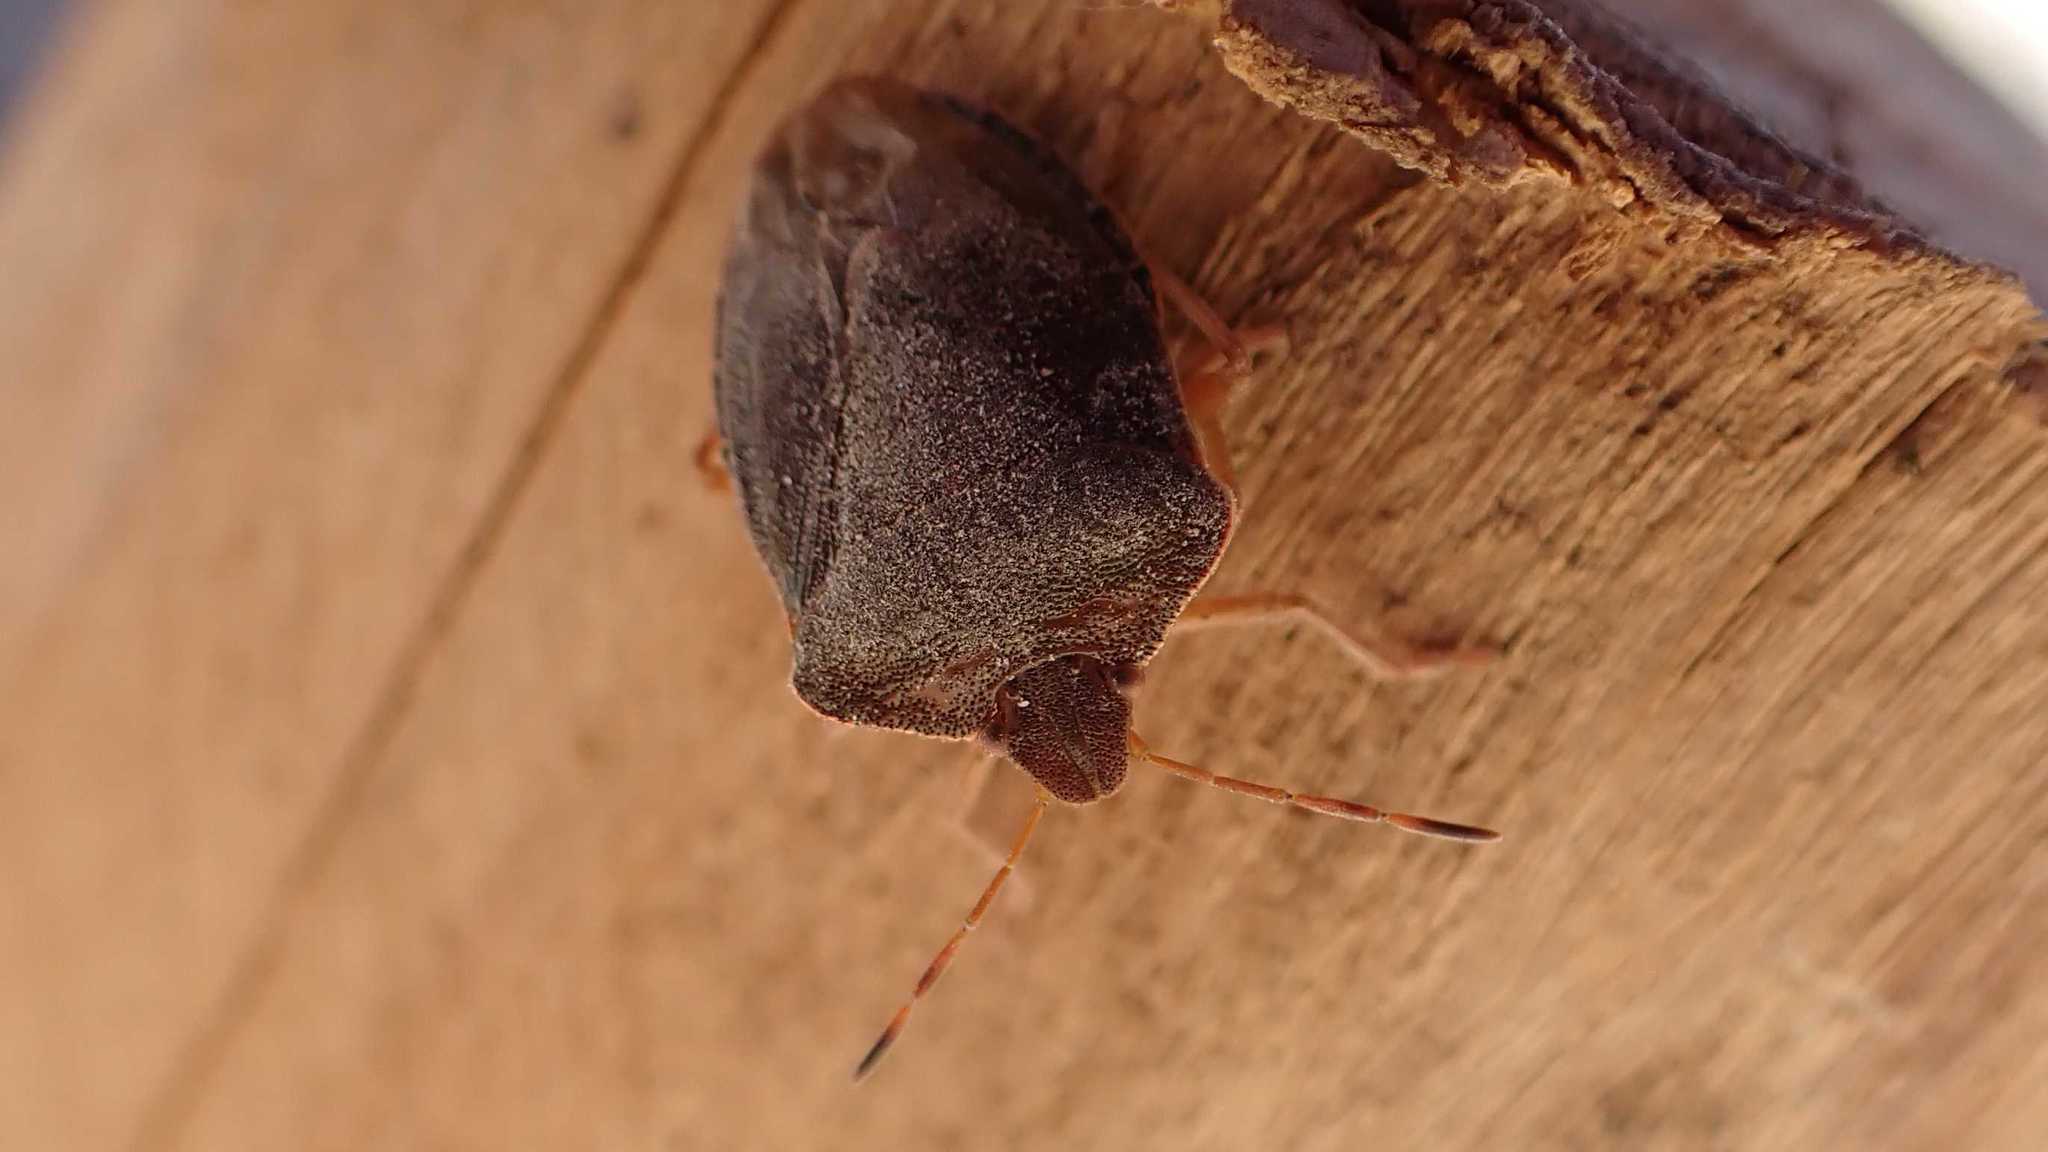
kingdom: Animalia
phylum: Arthropoda
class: Insecta
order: Hemiptera
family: Pentatomidae
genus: Palomena
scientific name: Palomena prasina
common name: Green shieldbug
